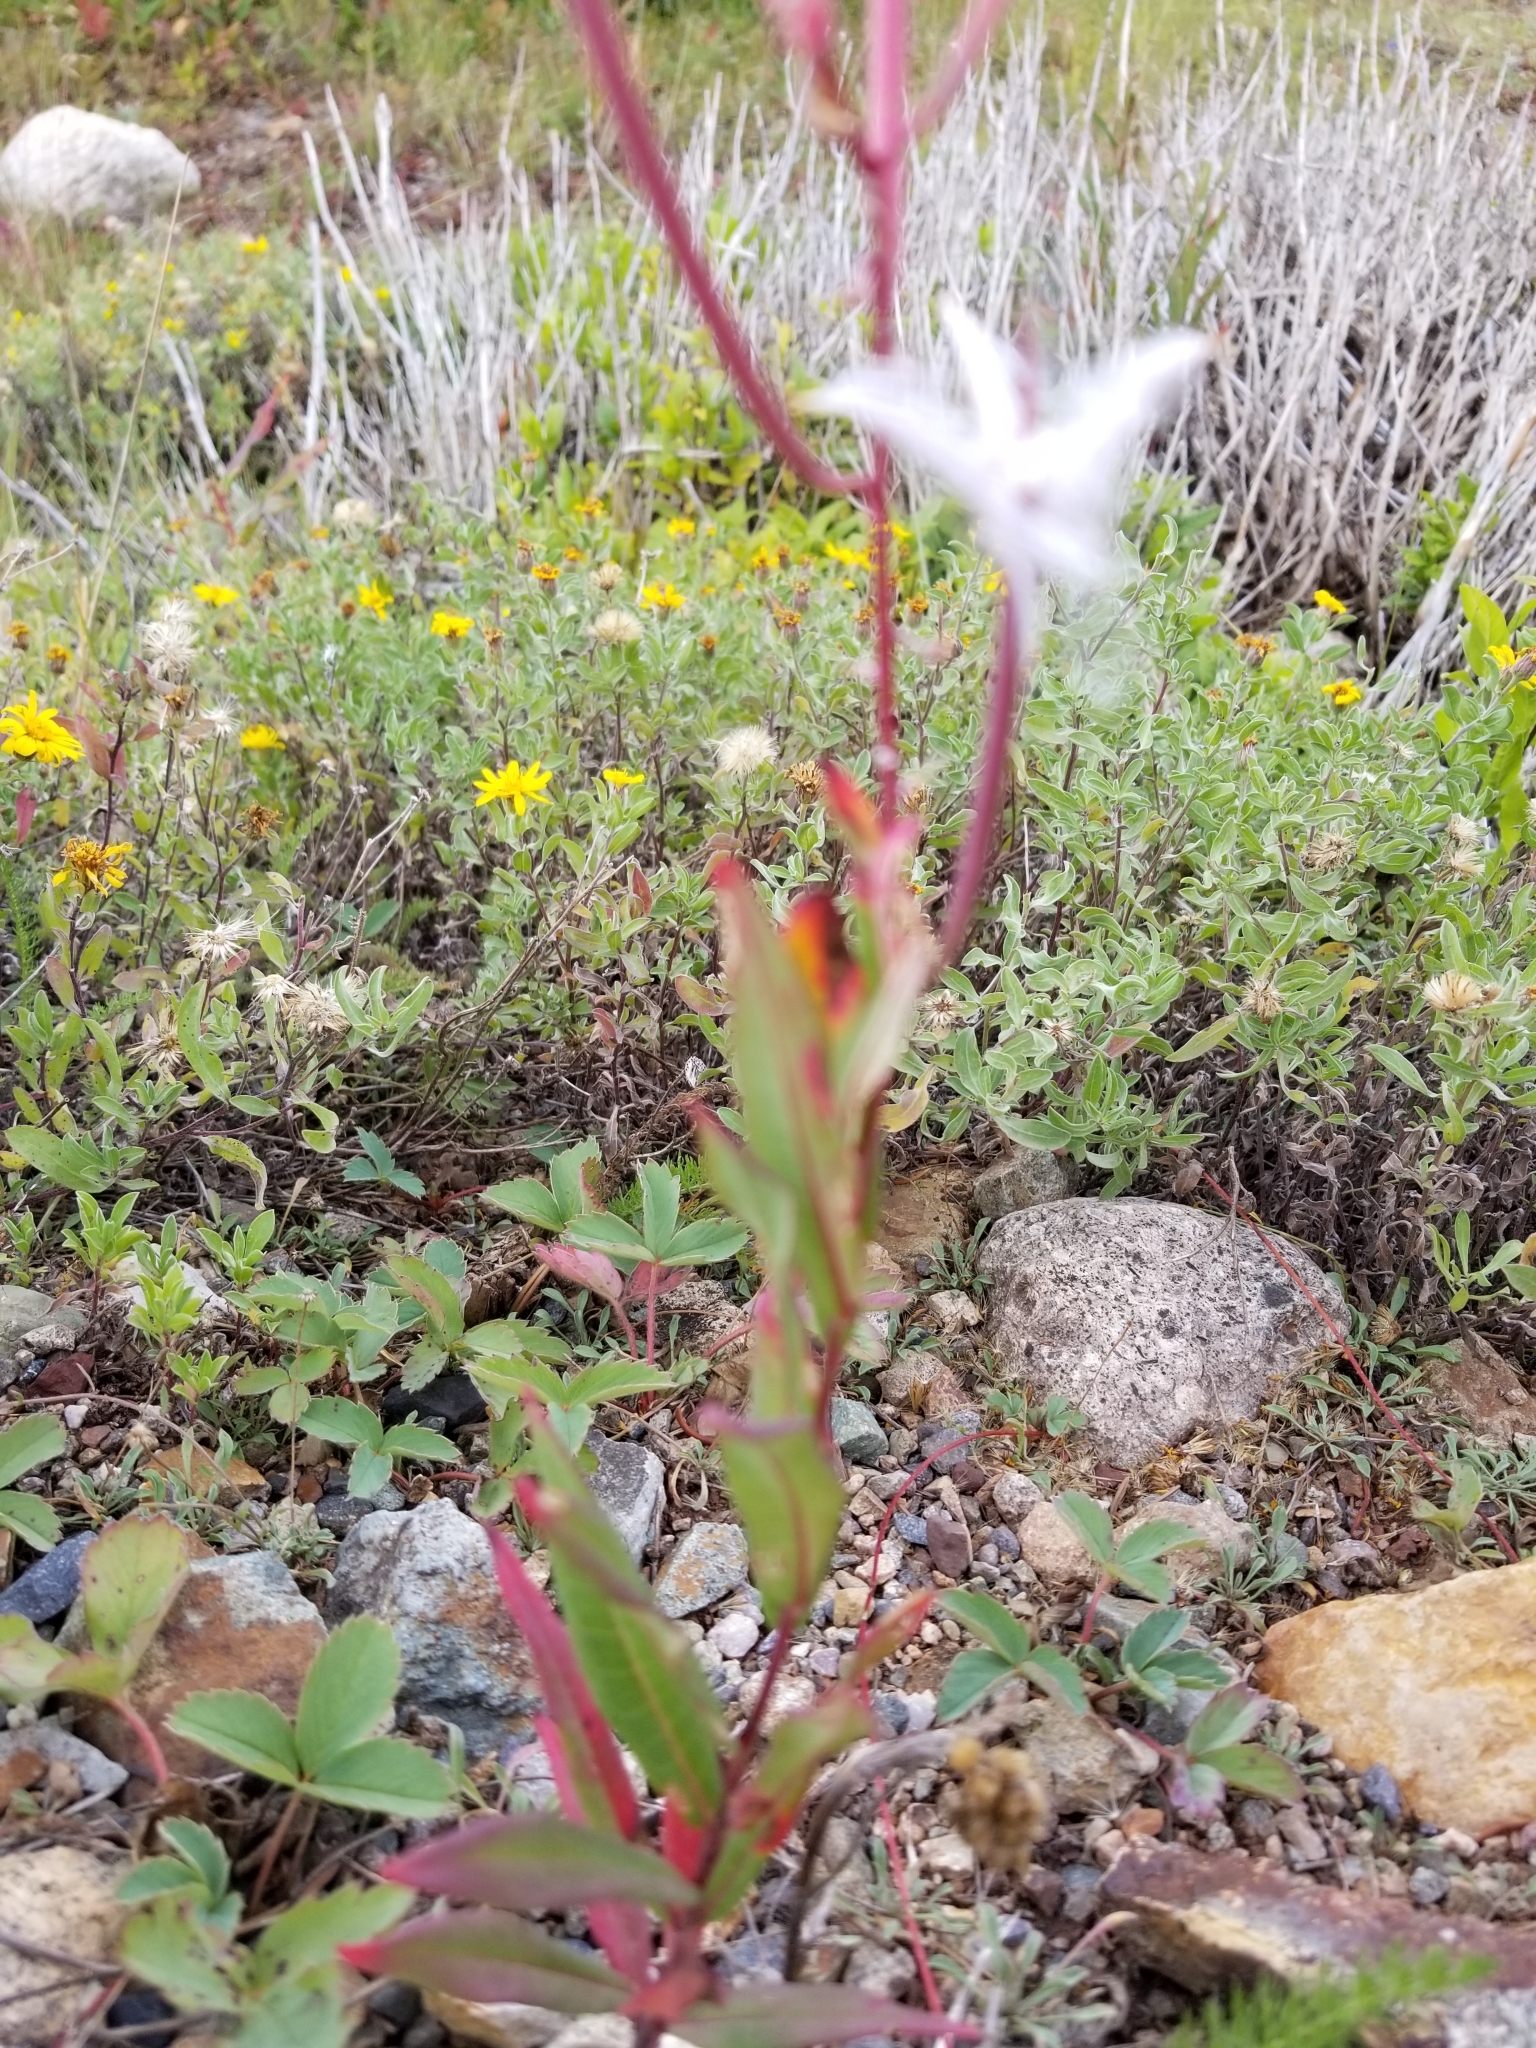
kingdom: Plantae
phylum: Tracheophyta
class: Magnoliopsida
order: Myrtales
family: Onagraceae
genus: Chamaenerion
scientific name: Chamaenerion angustifolium
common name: Fireweed
